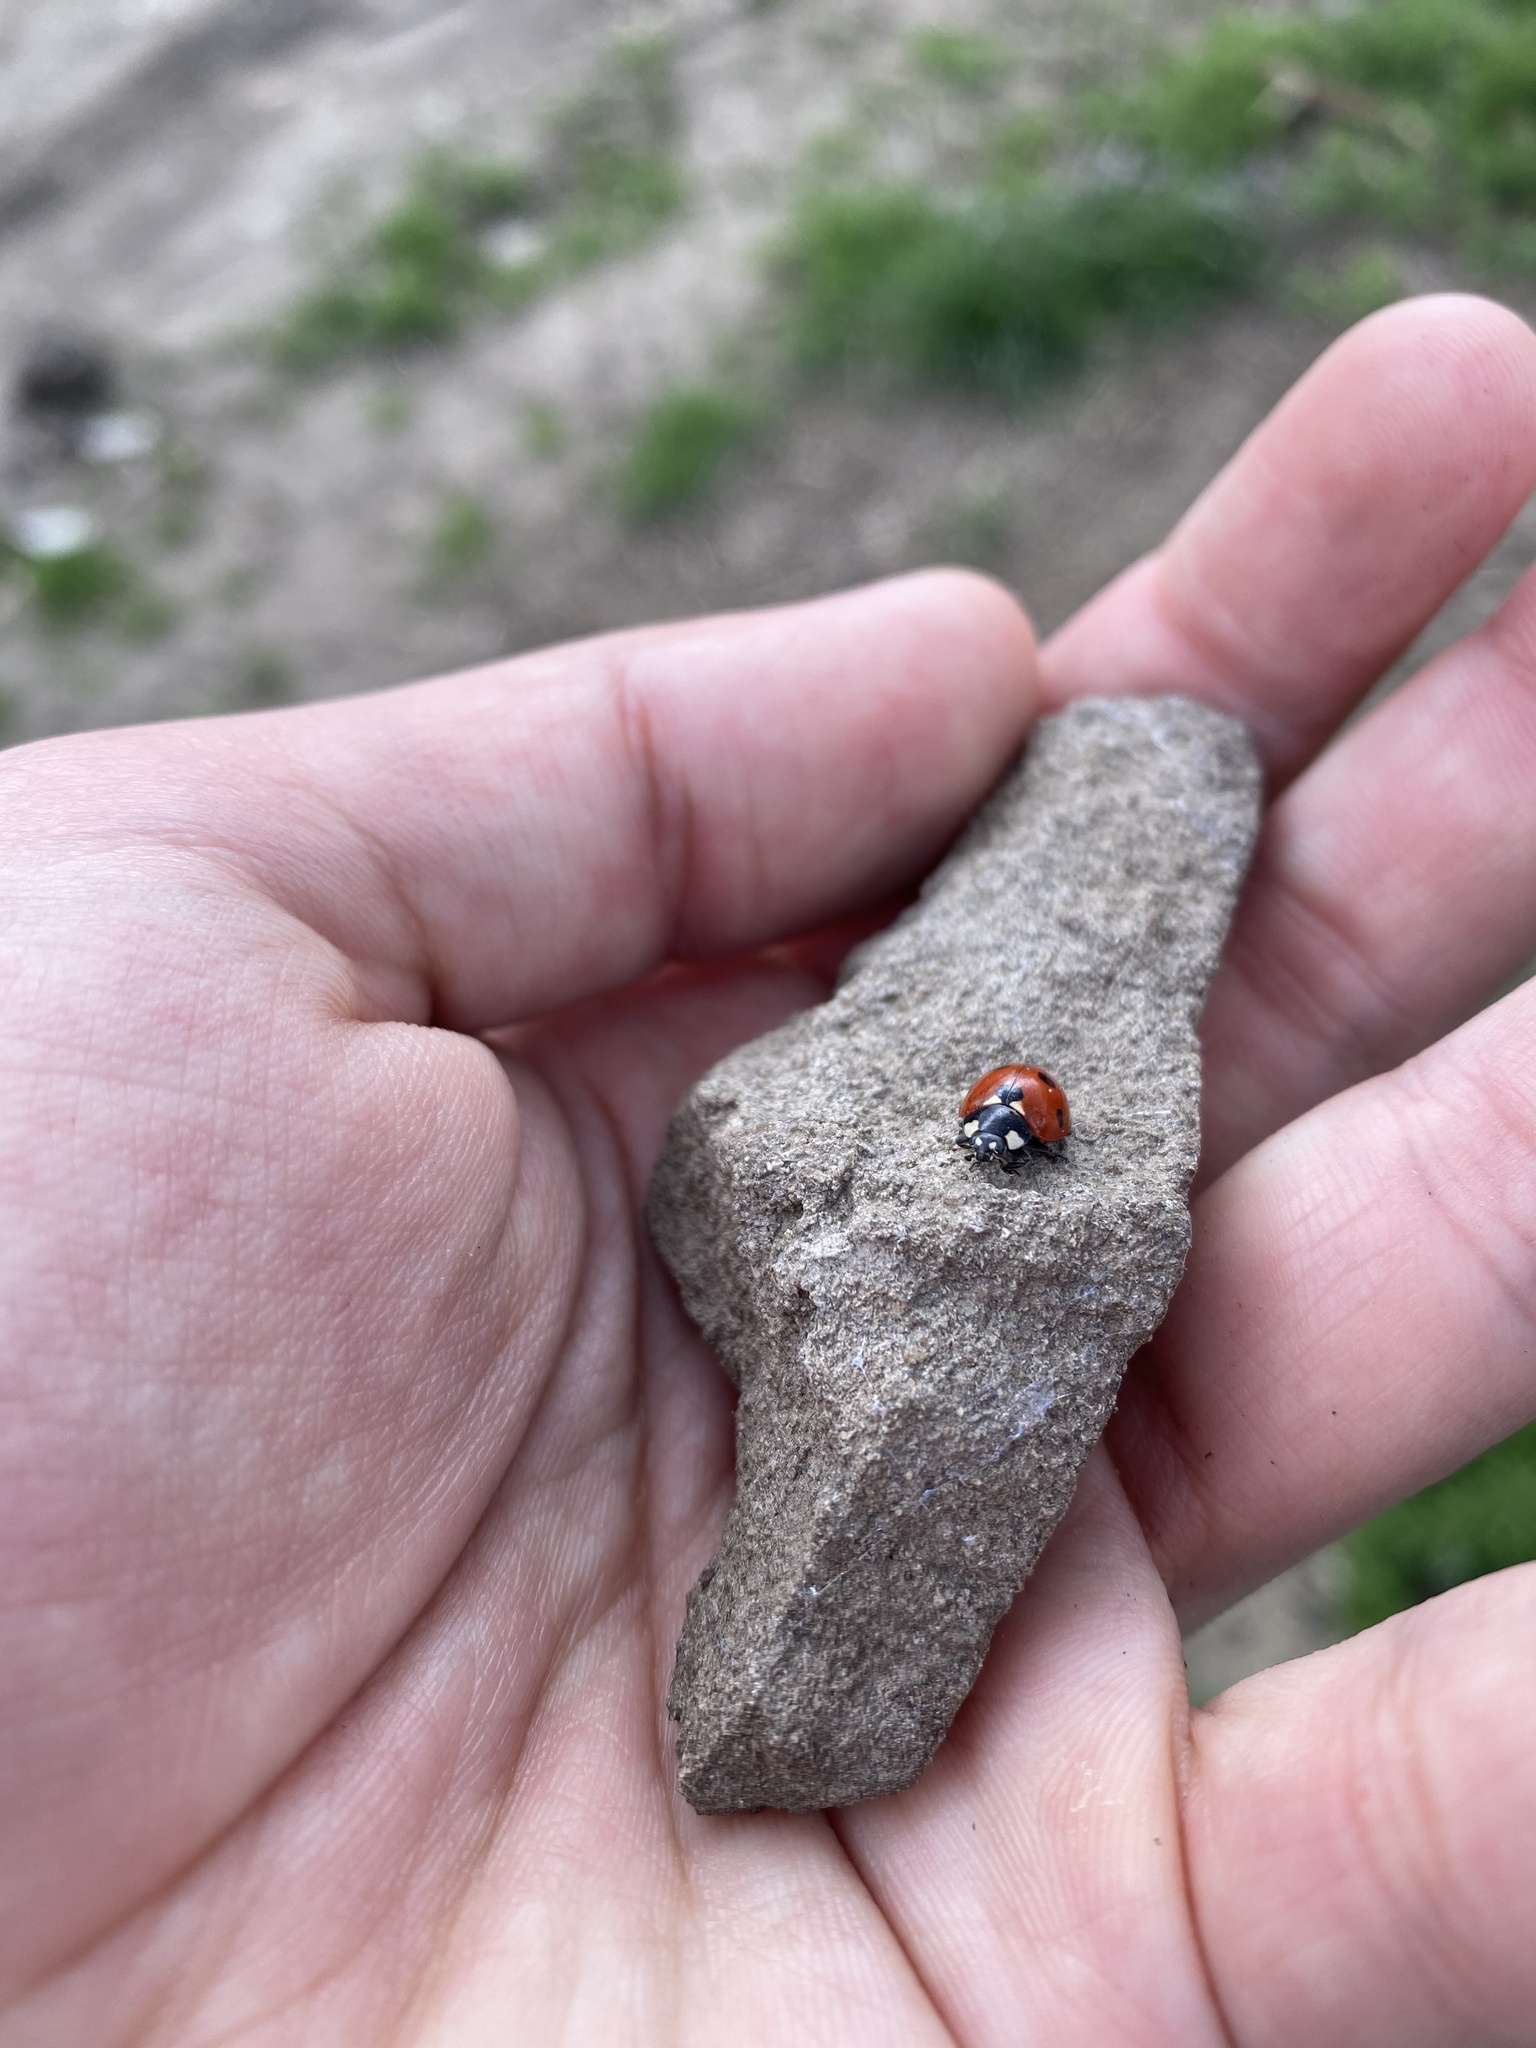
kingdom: Animalia
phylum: Arthropoda
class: Insecta
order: Coleoptera
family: Coccinellidae
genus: Coccinella
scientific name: Coccinella septempunctata
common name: Sevenspotted lady beetle
